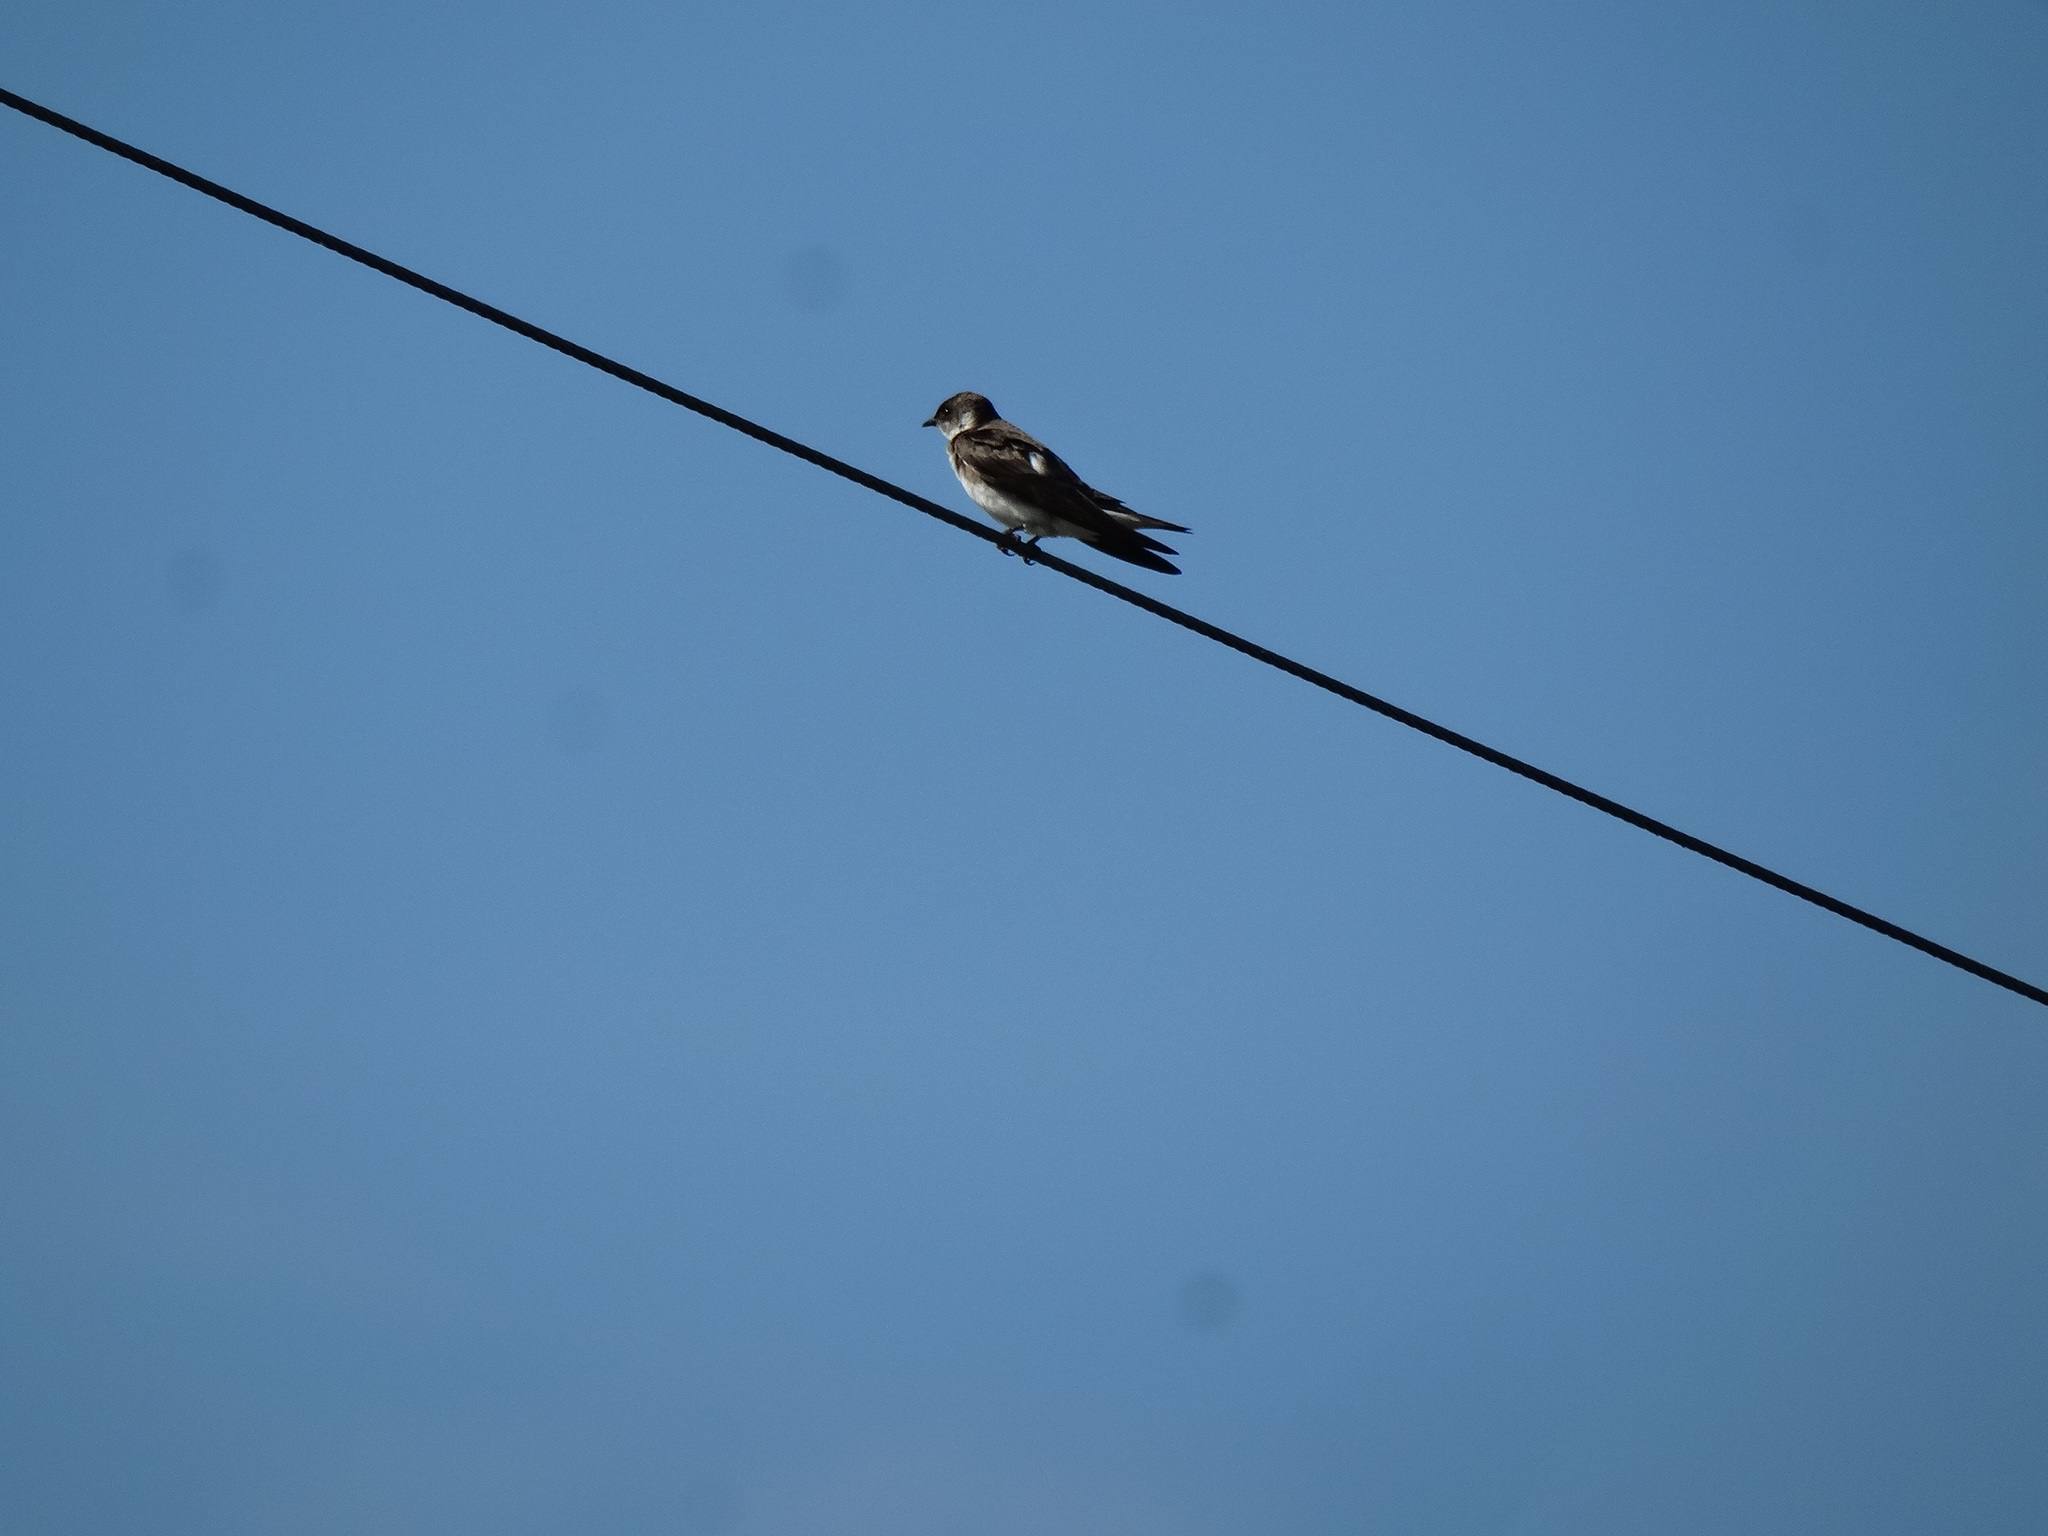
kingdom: Animalia
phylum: Chordata
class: Aves
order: Passeriformes
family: Hirundinidae
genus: Progne
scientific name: Progne tapera
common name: Brown-chested martin
